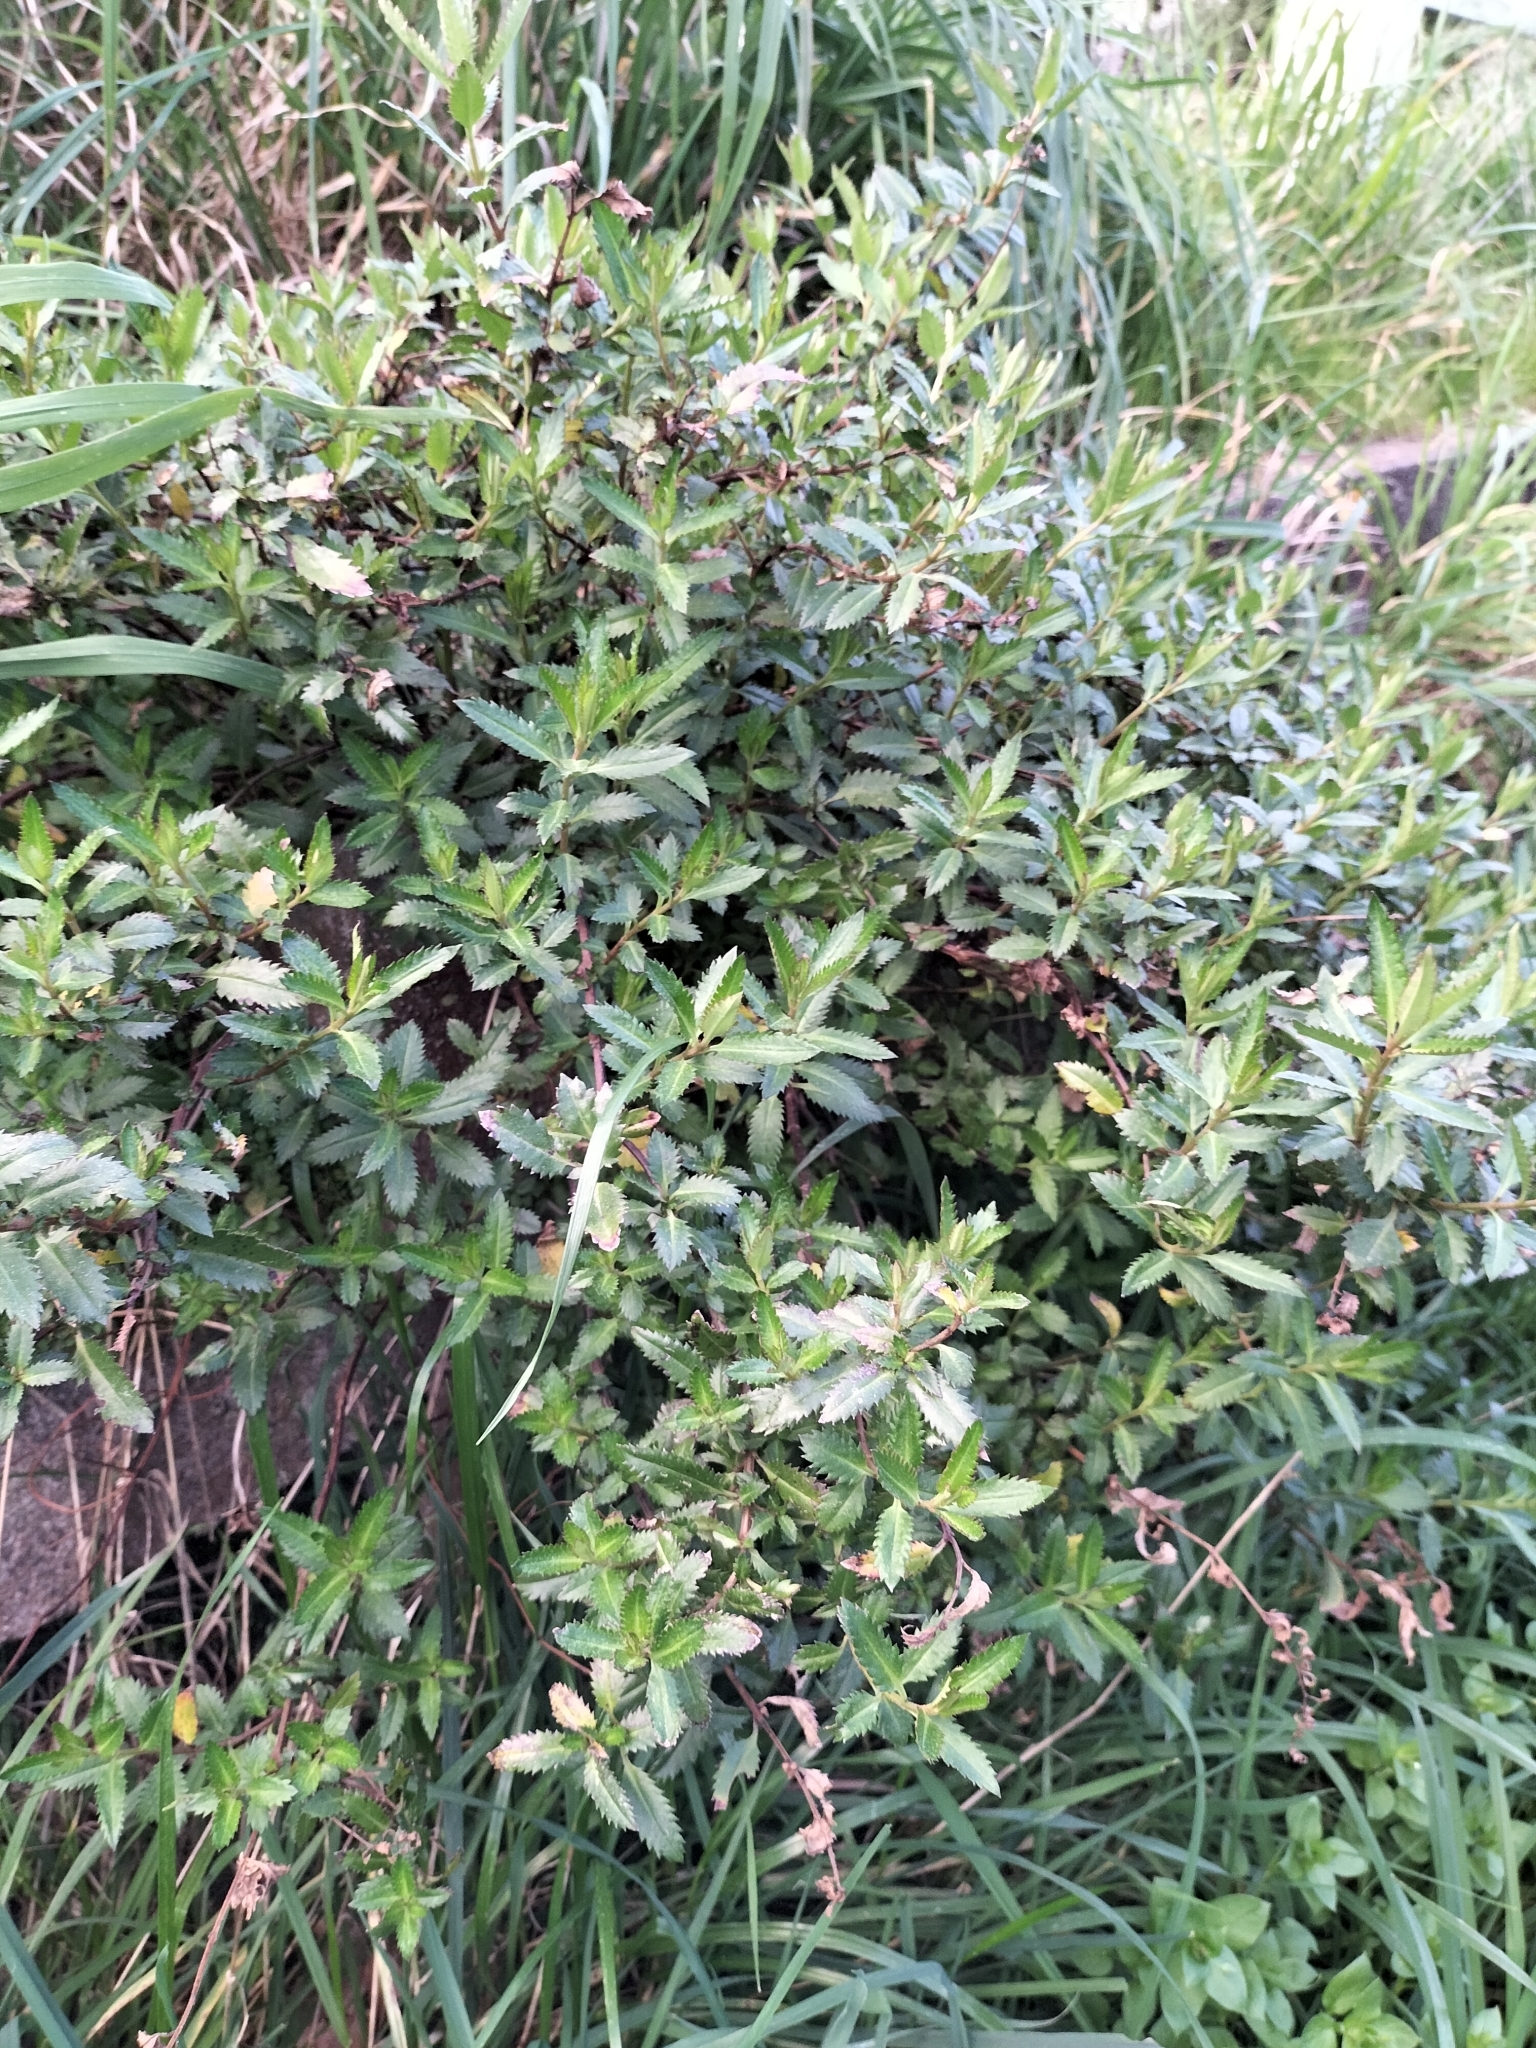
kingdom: Plantae
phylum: Tracheophyta
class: Magnoliopsida
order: Saxifragales
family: Haloragaceae
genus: Haloragis
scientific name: Haloragis erecta
